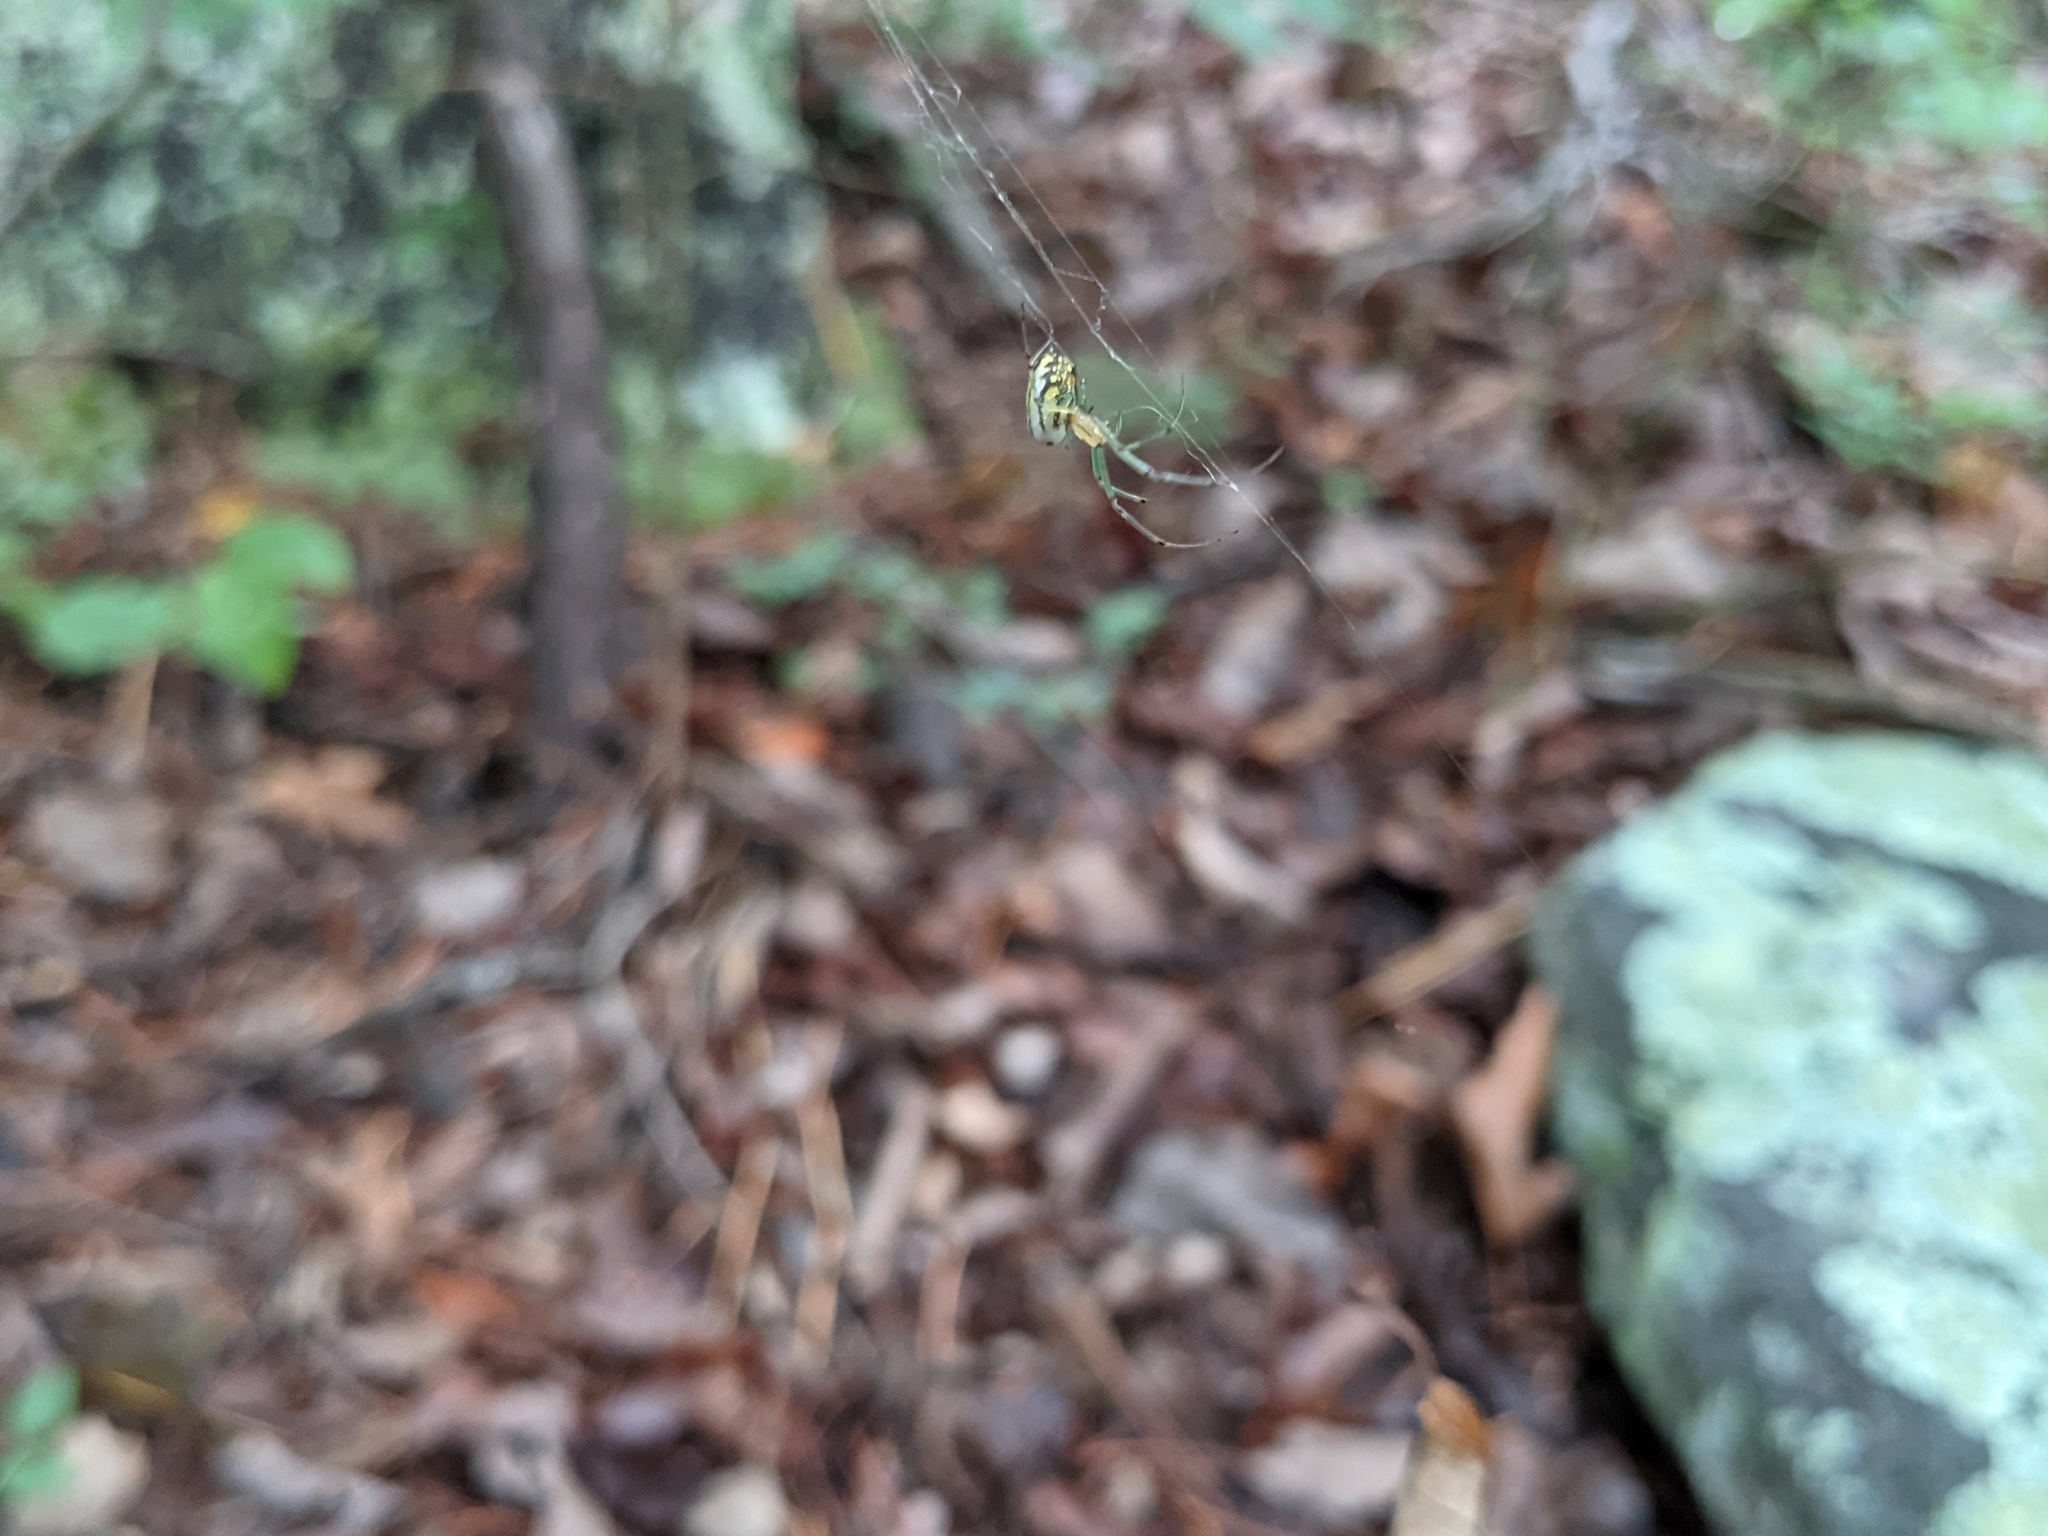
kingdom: Animalia
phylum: Arthropoda
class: Arachnida
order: Araneae
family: Tetragnathidae
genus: Leucauge
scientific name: Leucauge venusta
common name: Longjawed orb weavers
